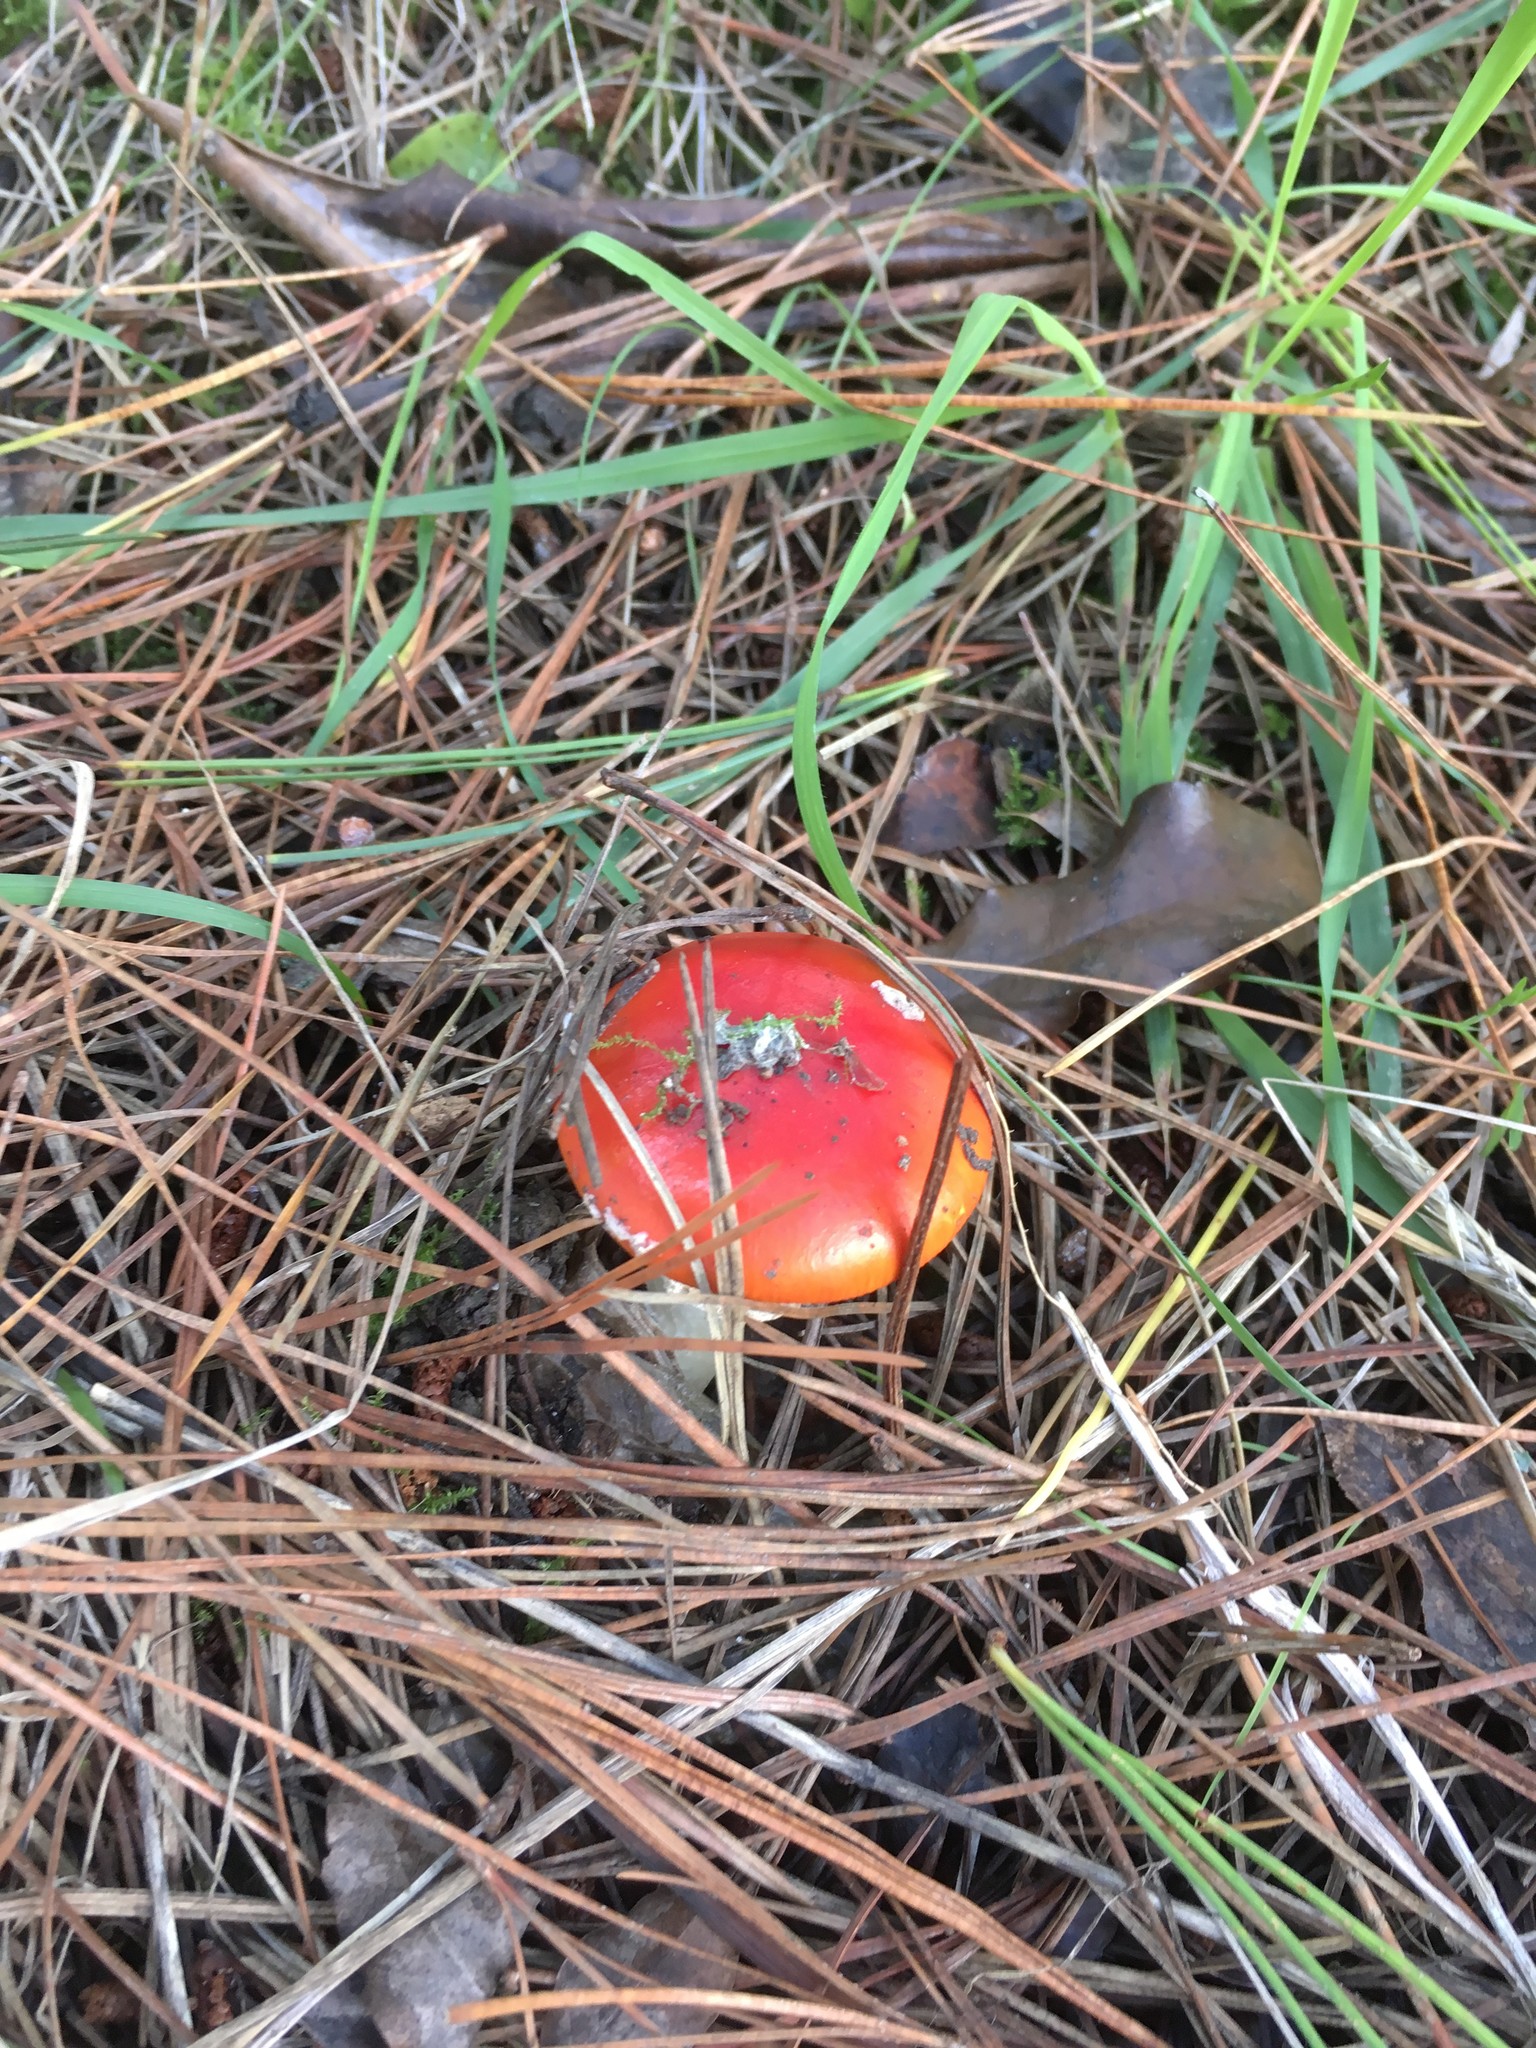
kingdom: Fungi
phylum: Basidiomycota
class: Agaricomycetes
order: Agaricales
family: Amanitaceae
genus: Amanita
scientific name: Amanita muscaria
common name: Fly agaric
